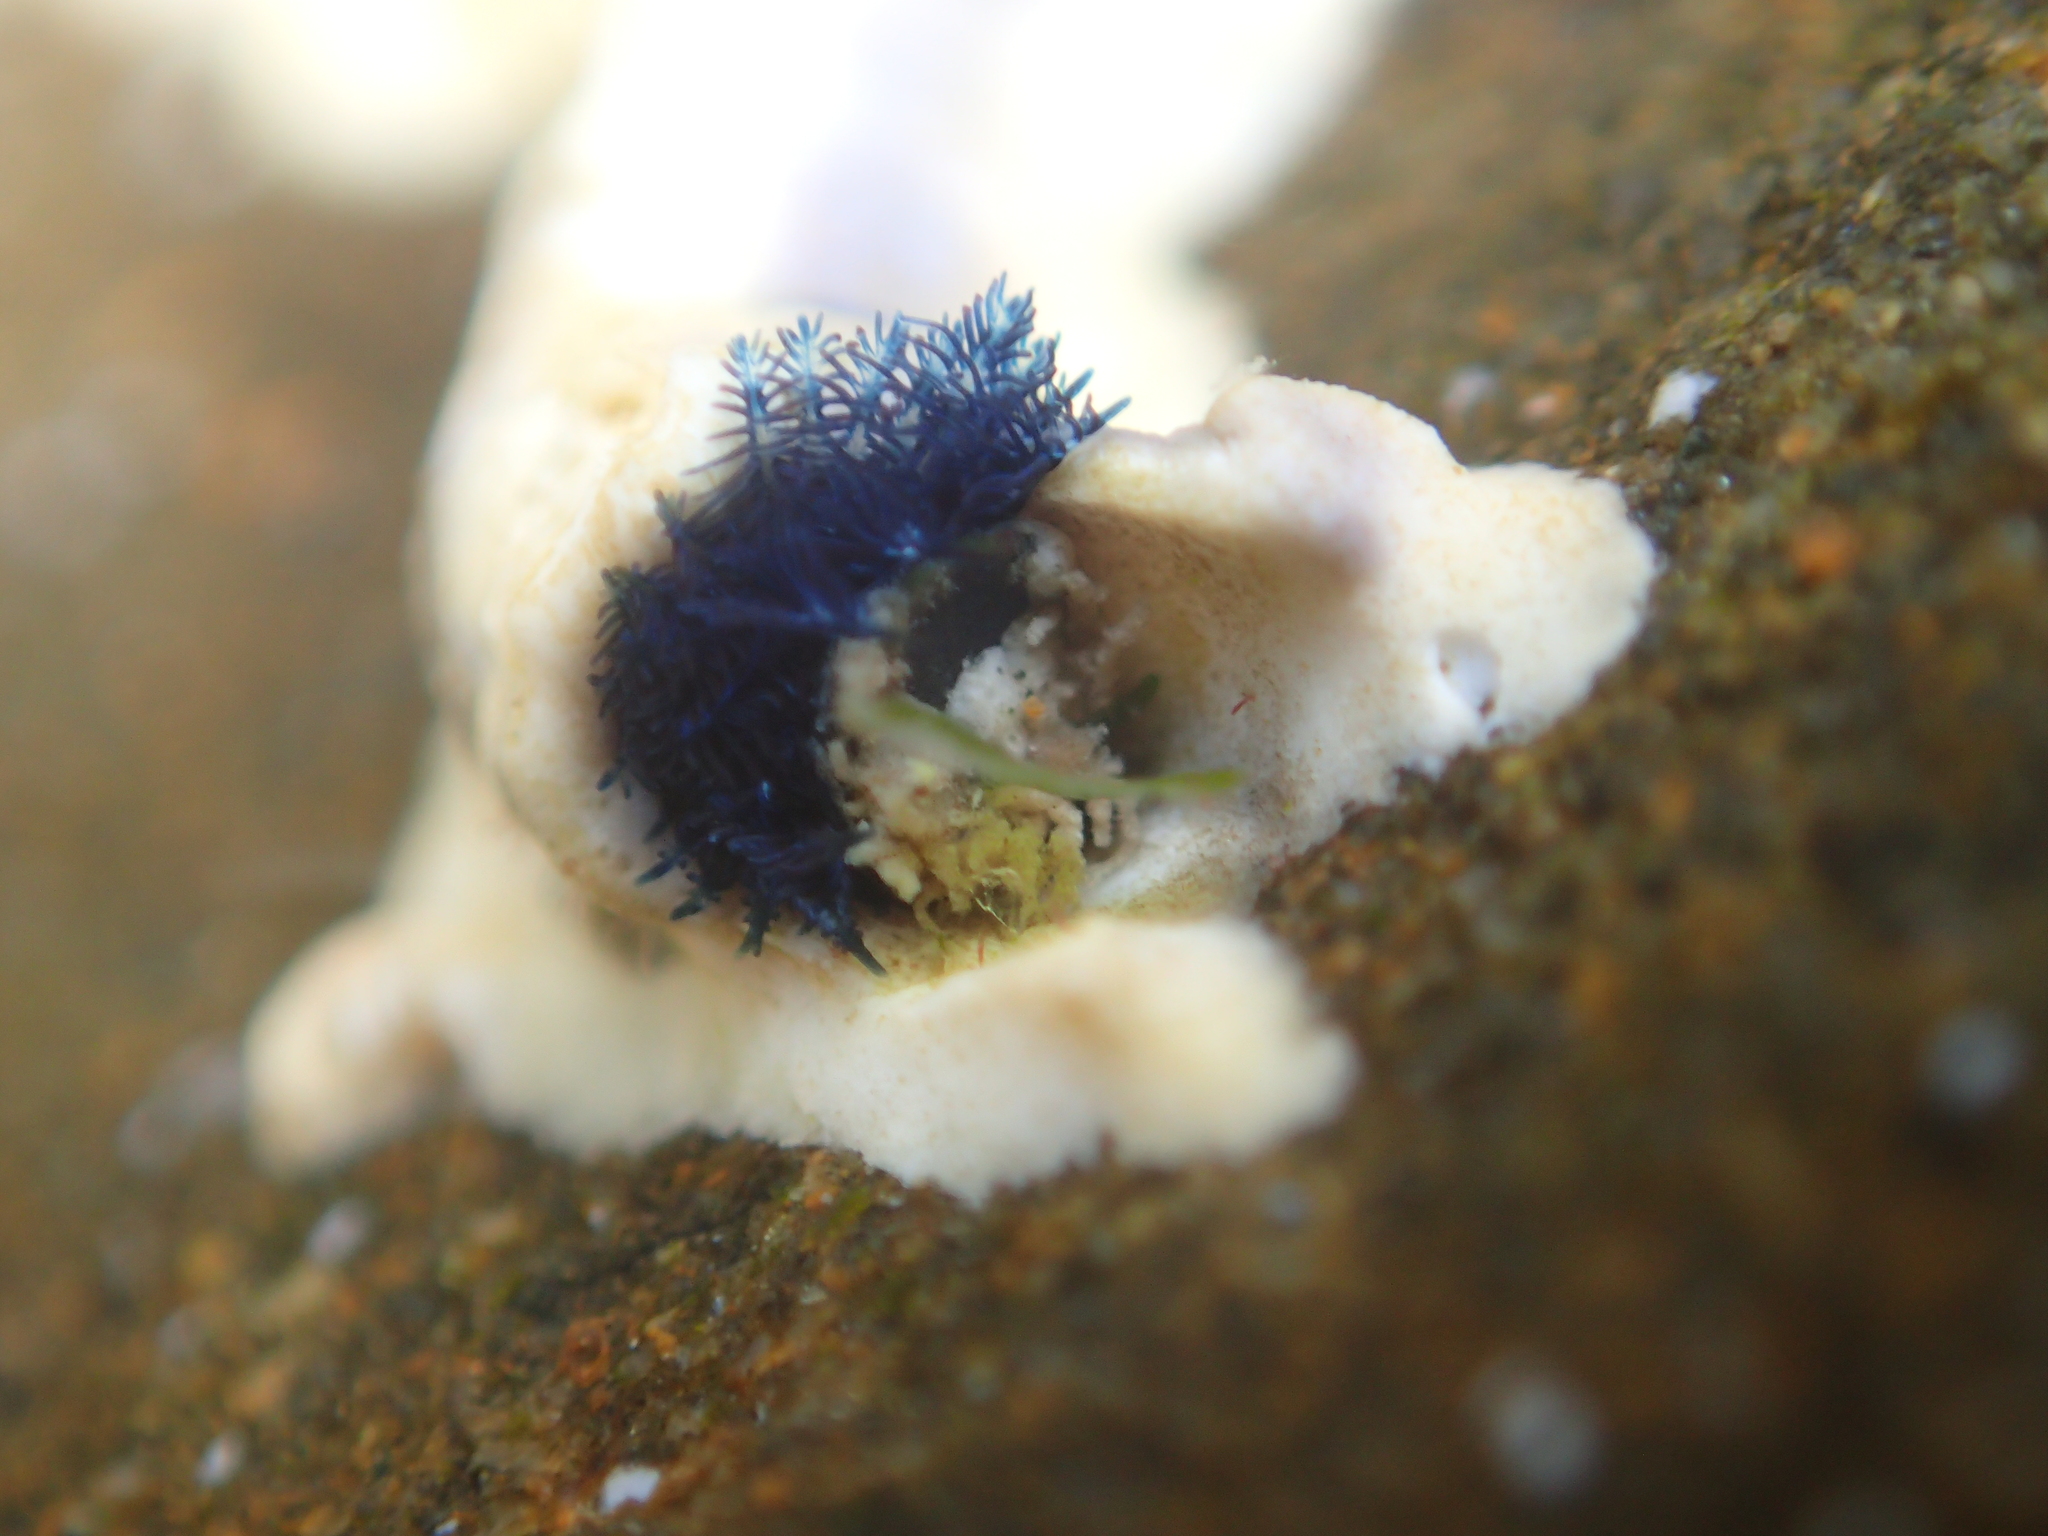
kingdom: Animalia
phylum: Annelida
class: Polychaeta
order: Sabellida
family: Serpulidae
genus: Spirobranchus
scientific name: Spirobranchus cariniferus
